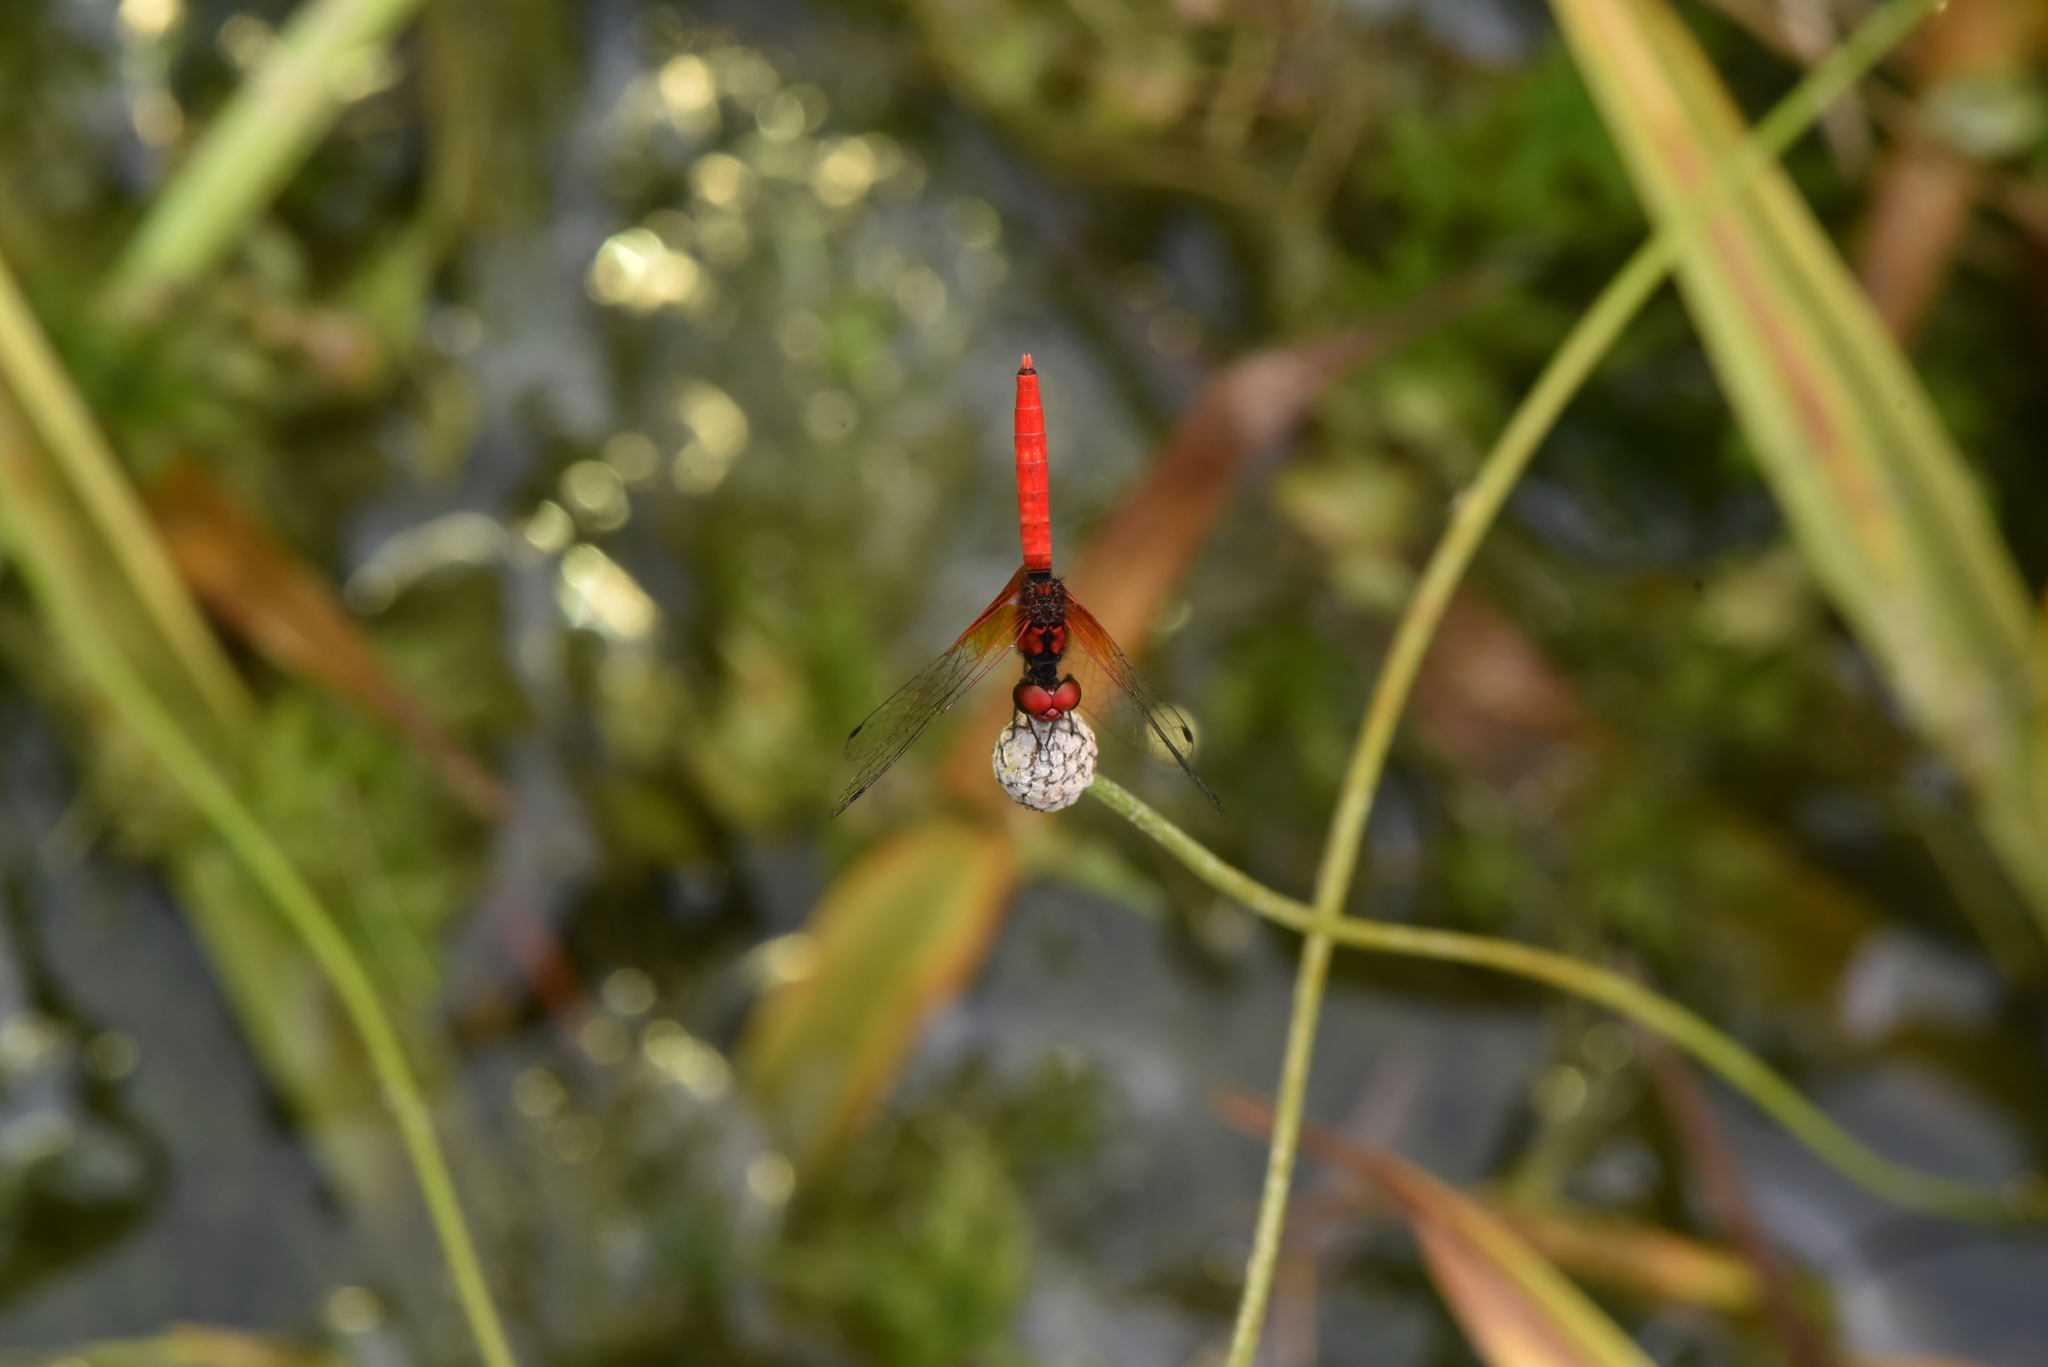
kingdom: Animalia
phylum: Arthropoda
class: Insecta
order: Odonata
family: Libellulidae
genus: Nannophya
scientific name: Nannophya pygmaea
